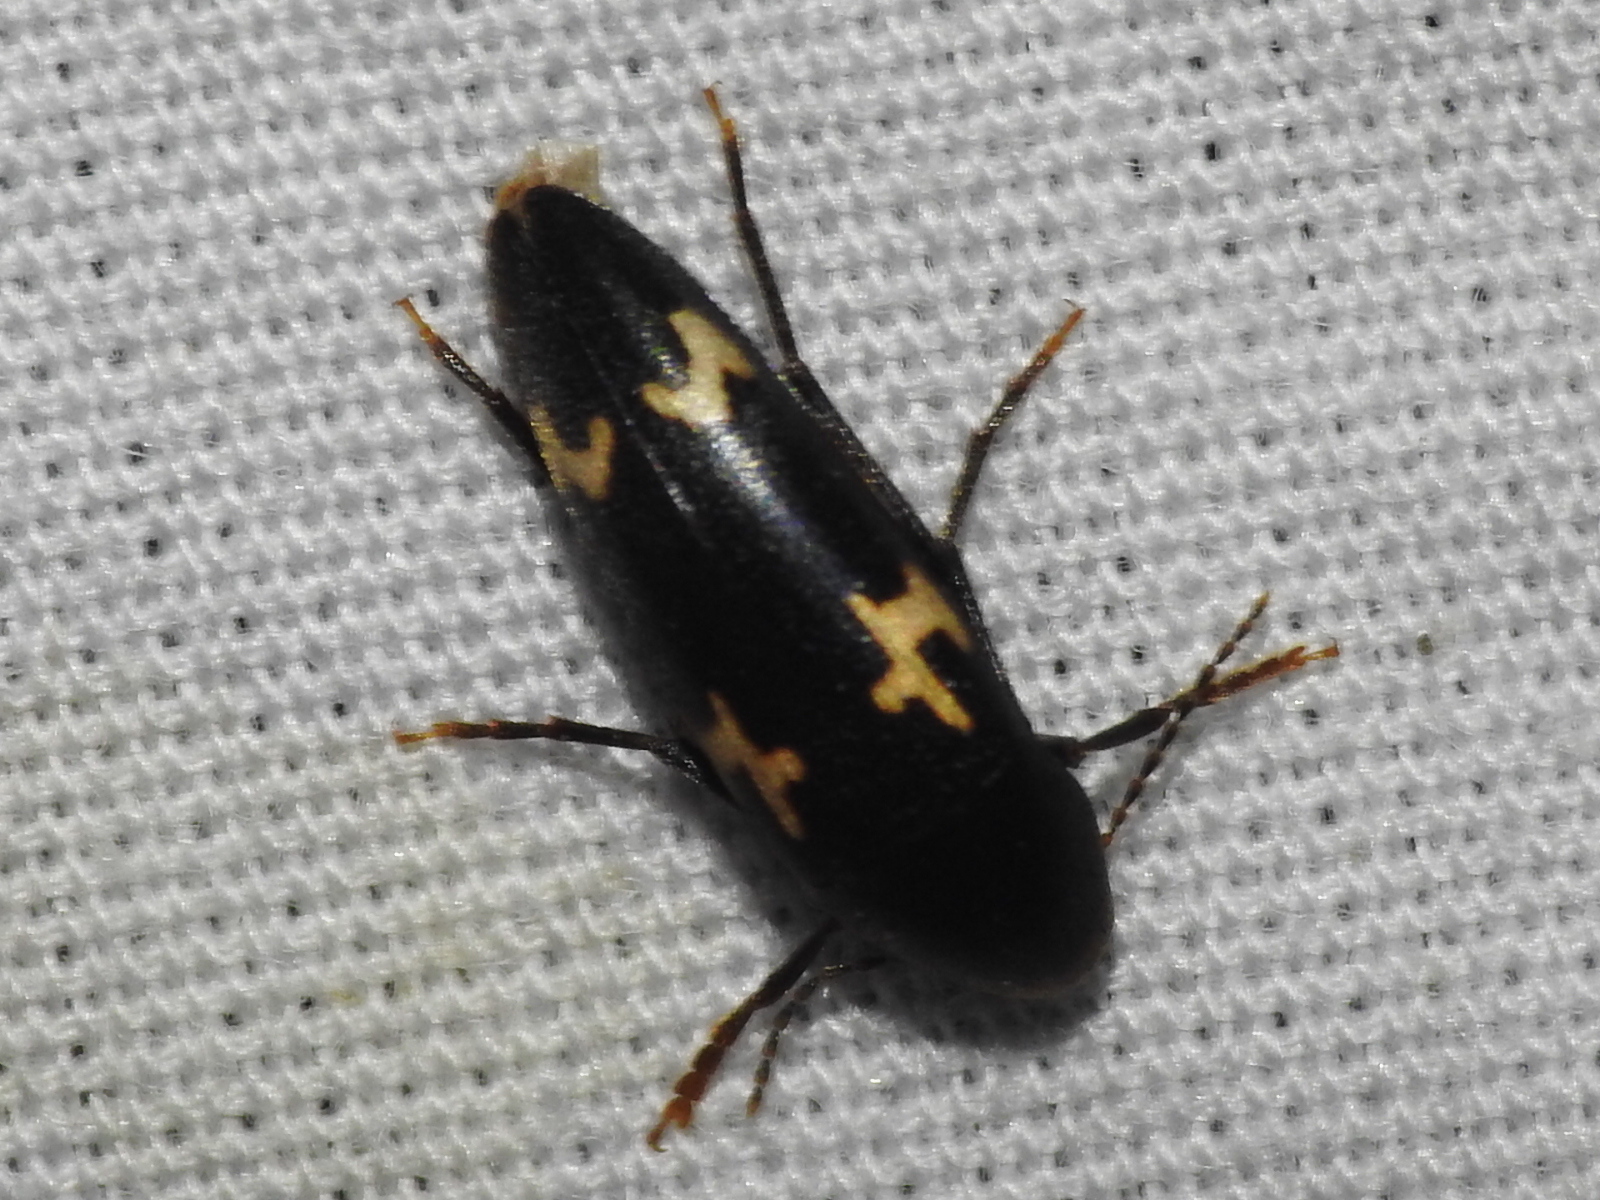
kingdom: Animalia
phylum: Arthropoda
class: Insecta
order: Coleoptera
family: Melandryidae
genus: Dircaea
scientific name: Dircaea liturata
